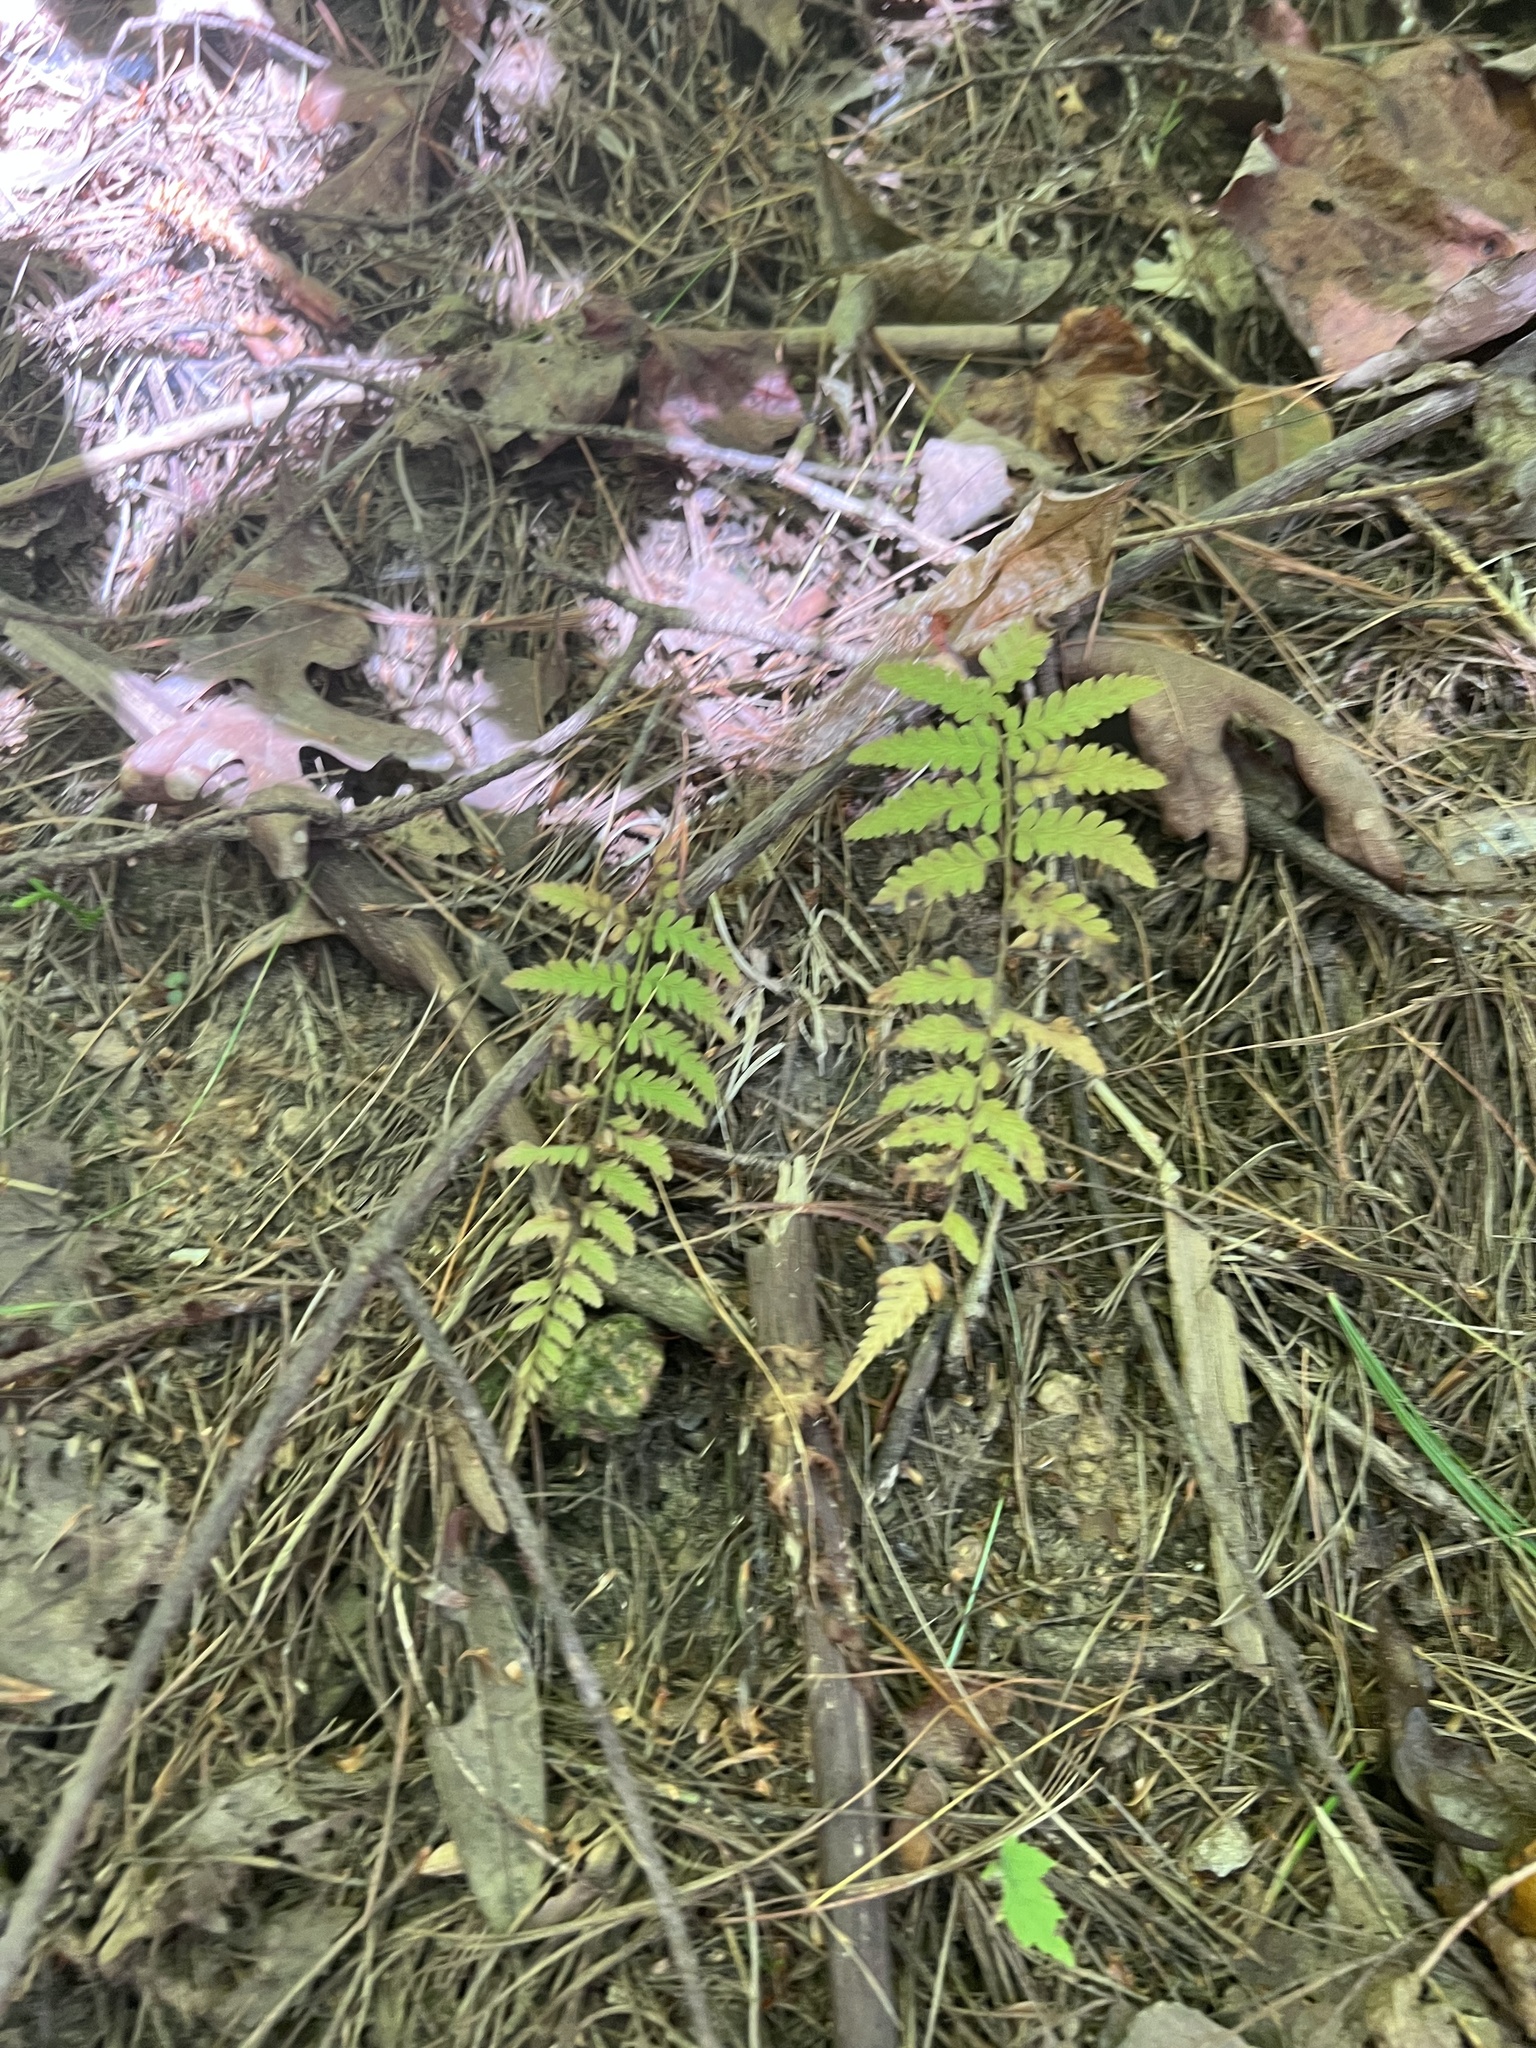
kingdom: Plantae
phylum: Tracheophyta
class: Polypodiopsida
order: Polypodiales
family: Dryopteridaceae
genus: Dryopteris
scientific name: Dryopteris marginalis
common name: Marginal wood fern
